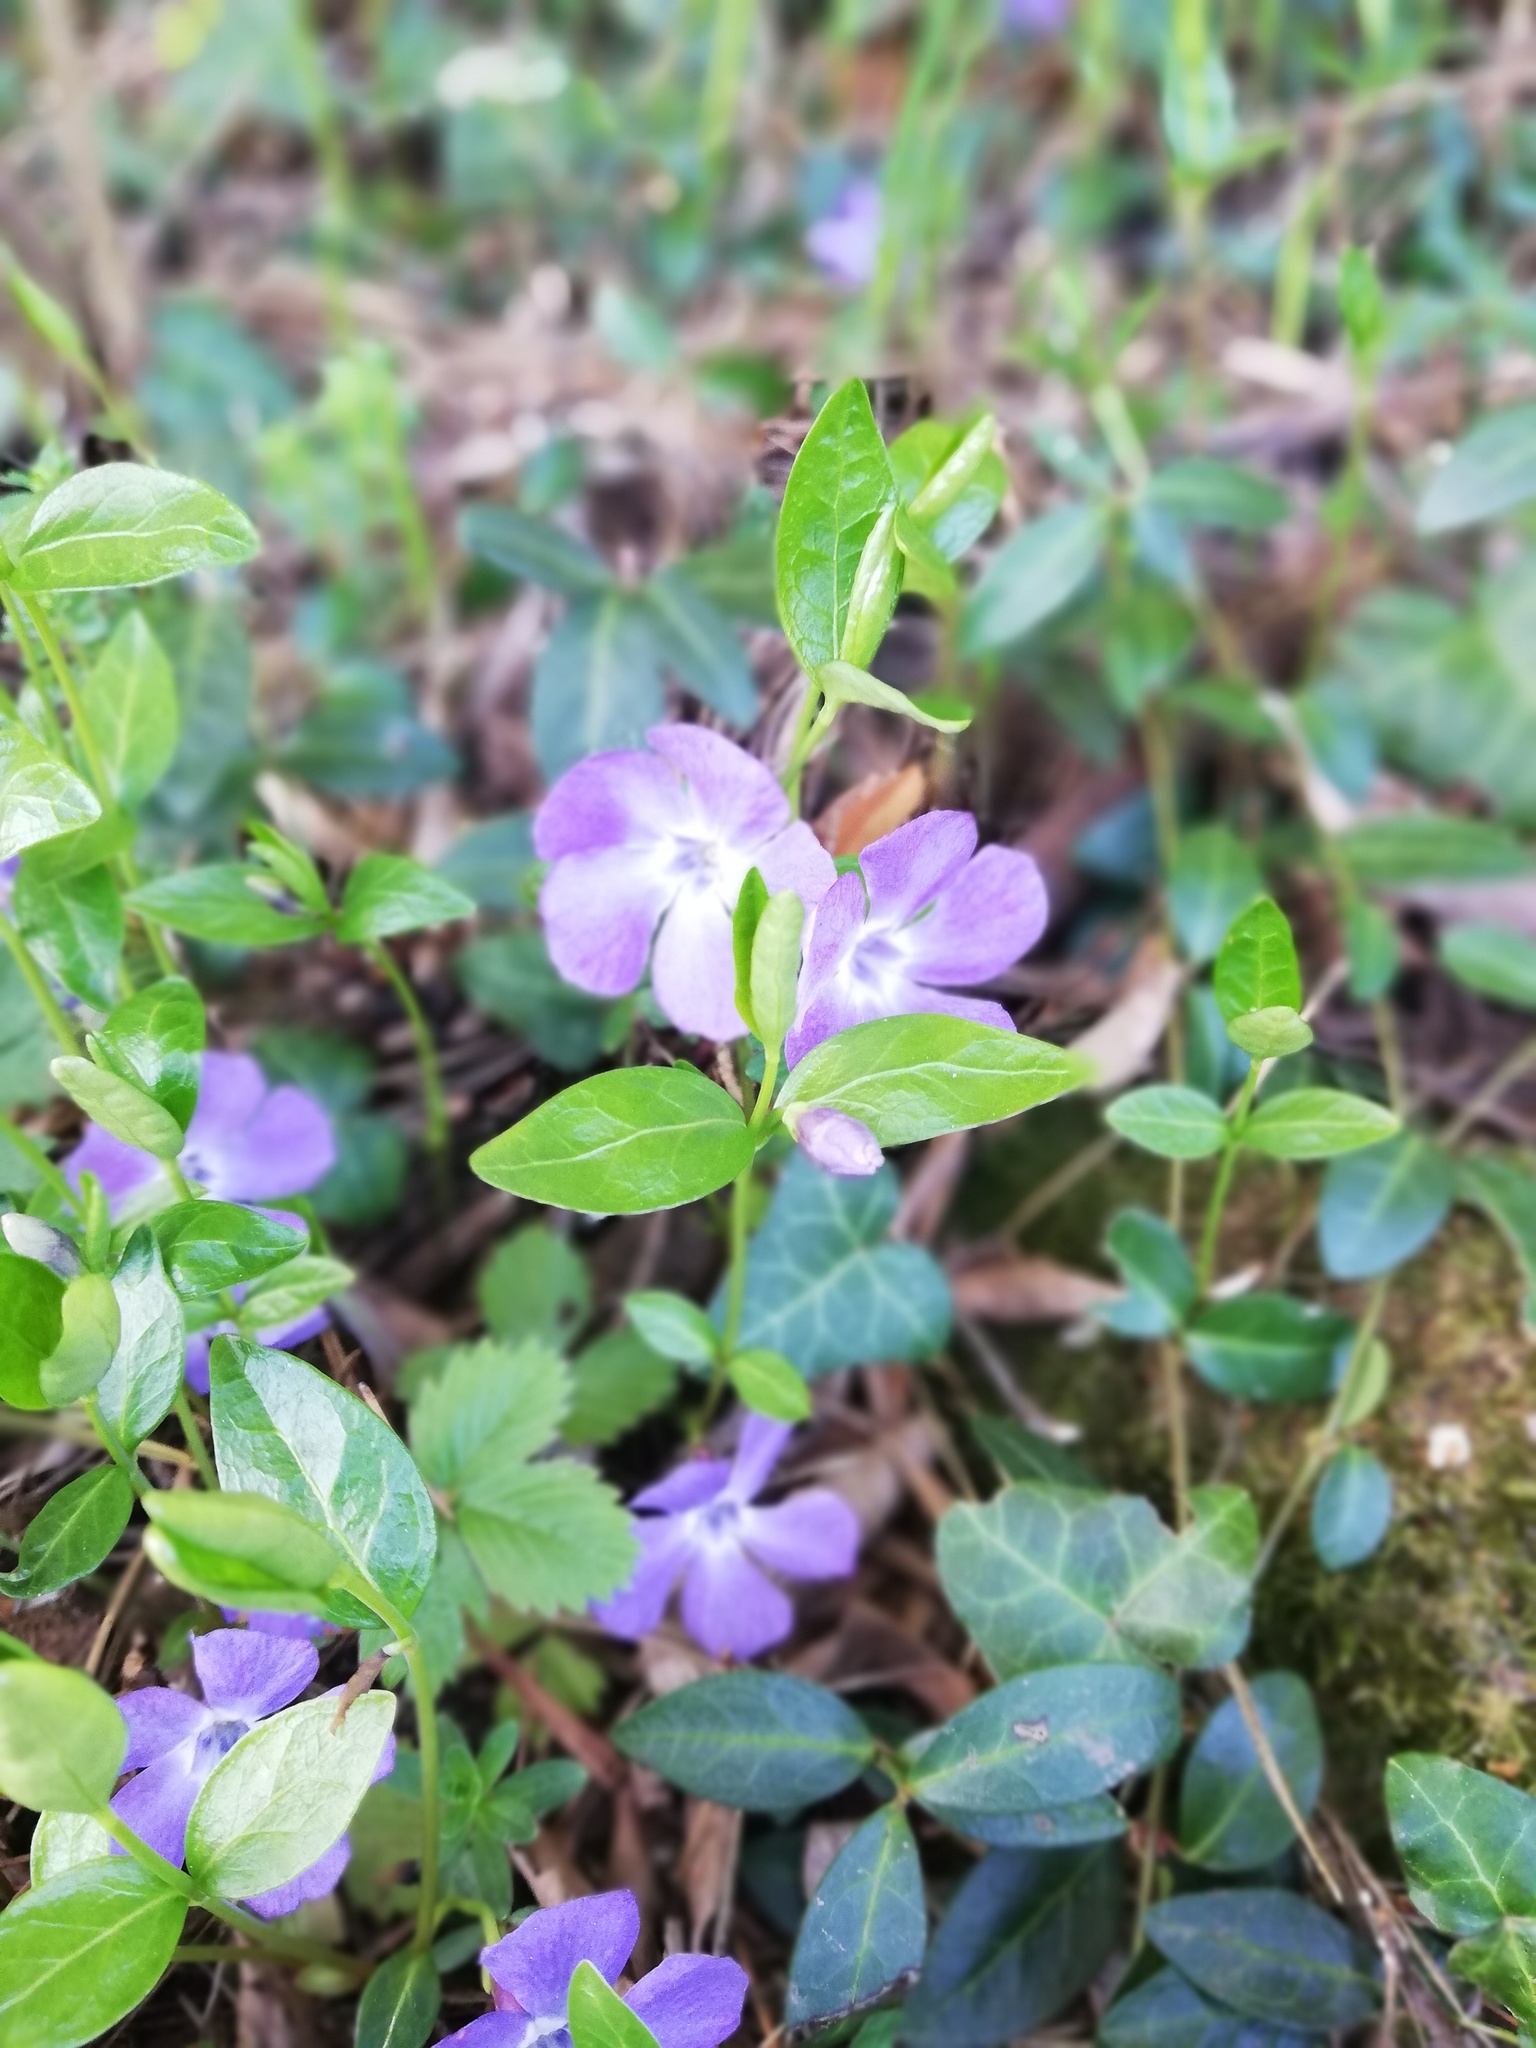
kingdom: Plantae
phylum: Tracheophyta
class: Magnoliopsida
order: Gentianales
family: Apocynaceae
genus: Vinca
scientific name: Vinca minor
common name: Lesser periwinkle
